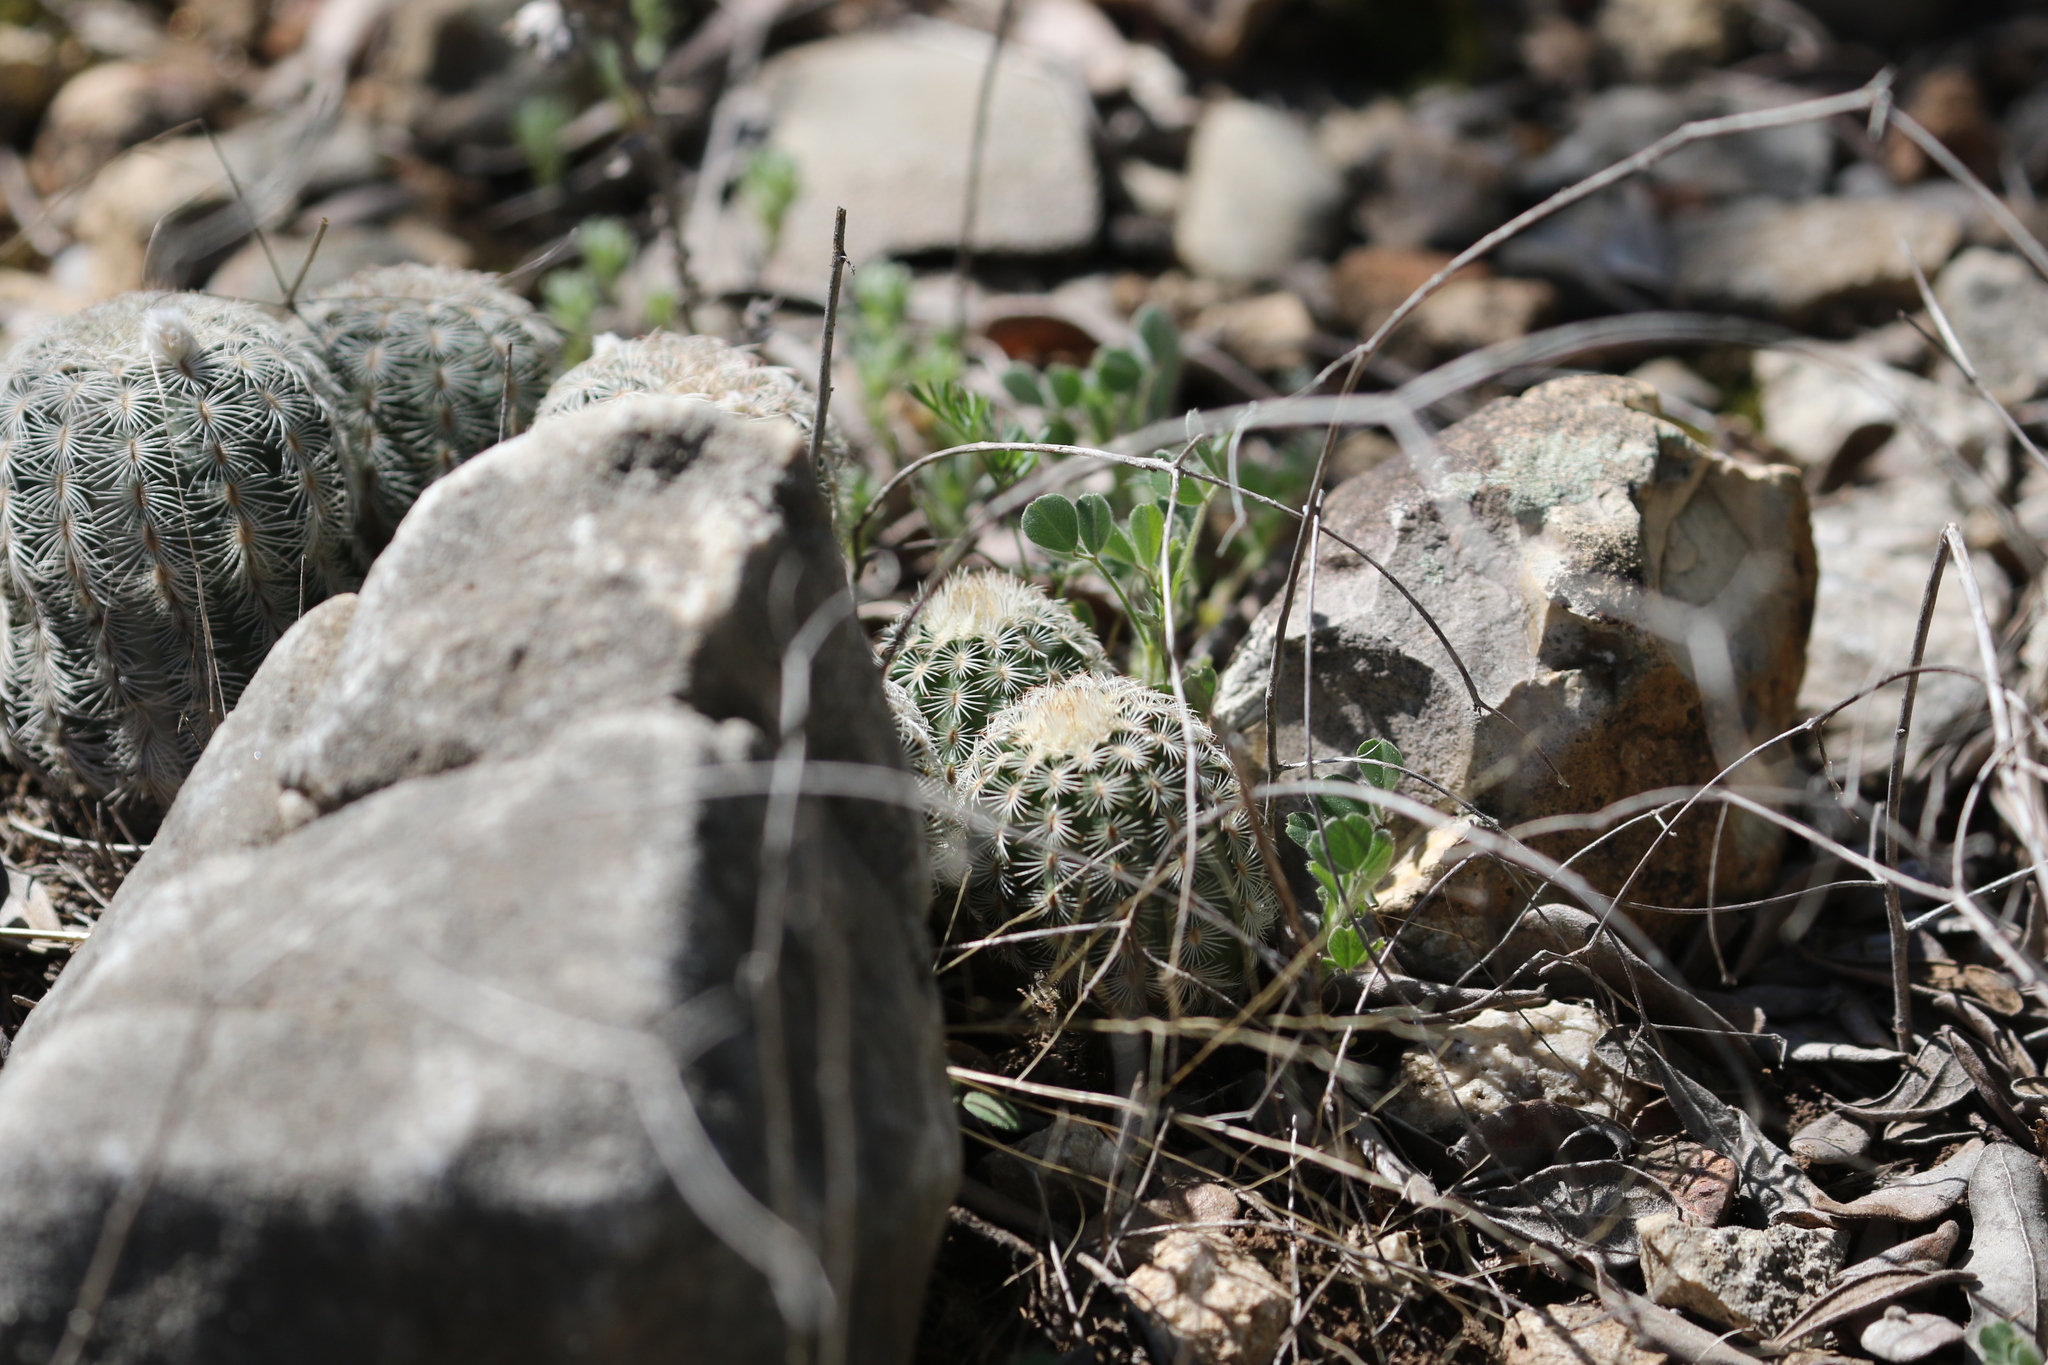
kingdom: Plantae
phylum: Tracheophyta
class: Magnoliopsida
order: Caryophyllales
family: Cactaceae
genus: Echinocereus
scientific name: Echinocereus reichenbachii
